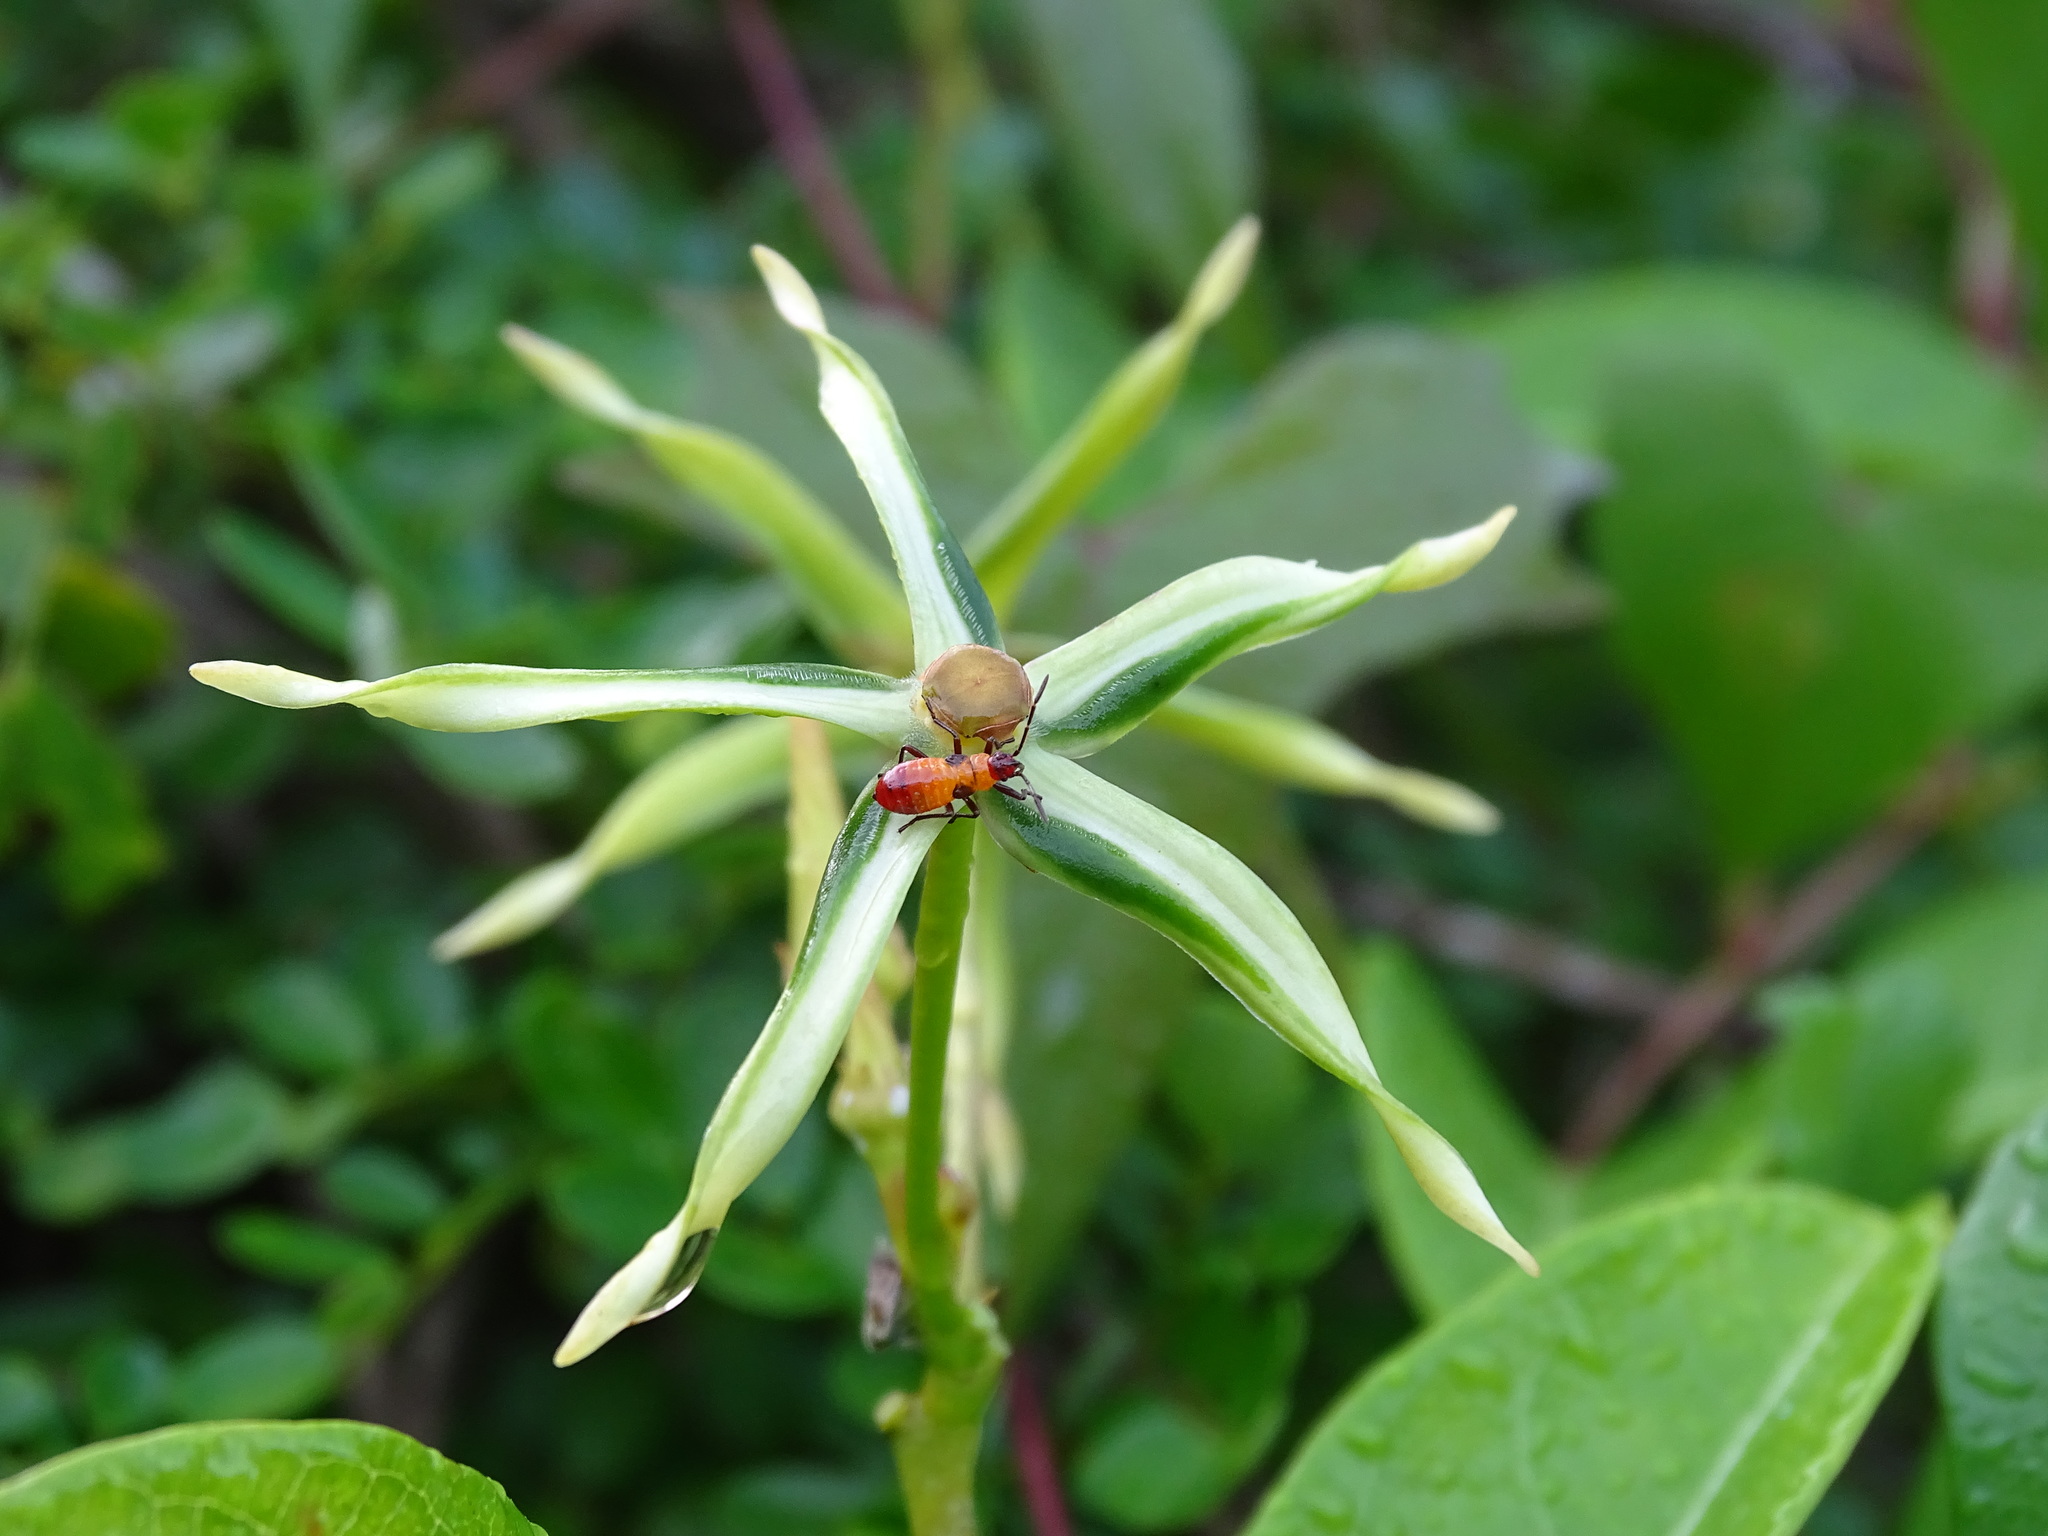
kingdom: Plantae
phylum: Tracheophyta
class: Magnoliopsida
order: Gentianales
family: Apocynaceae
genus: Gonolobus
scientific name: Gonolobus cteniophorus
